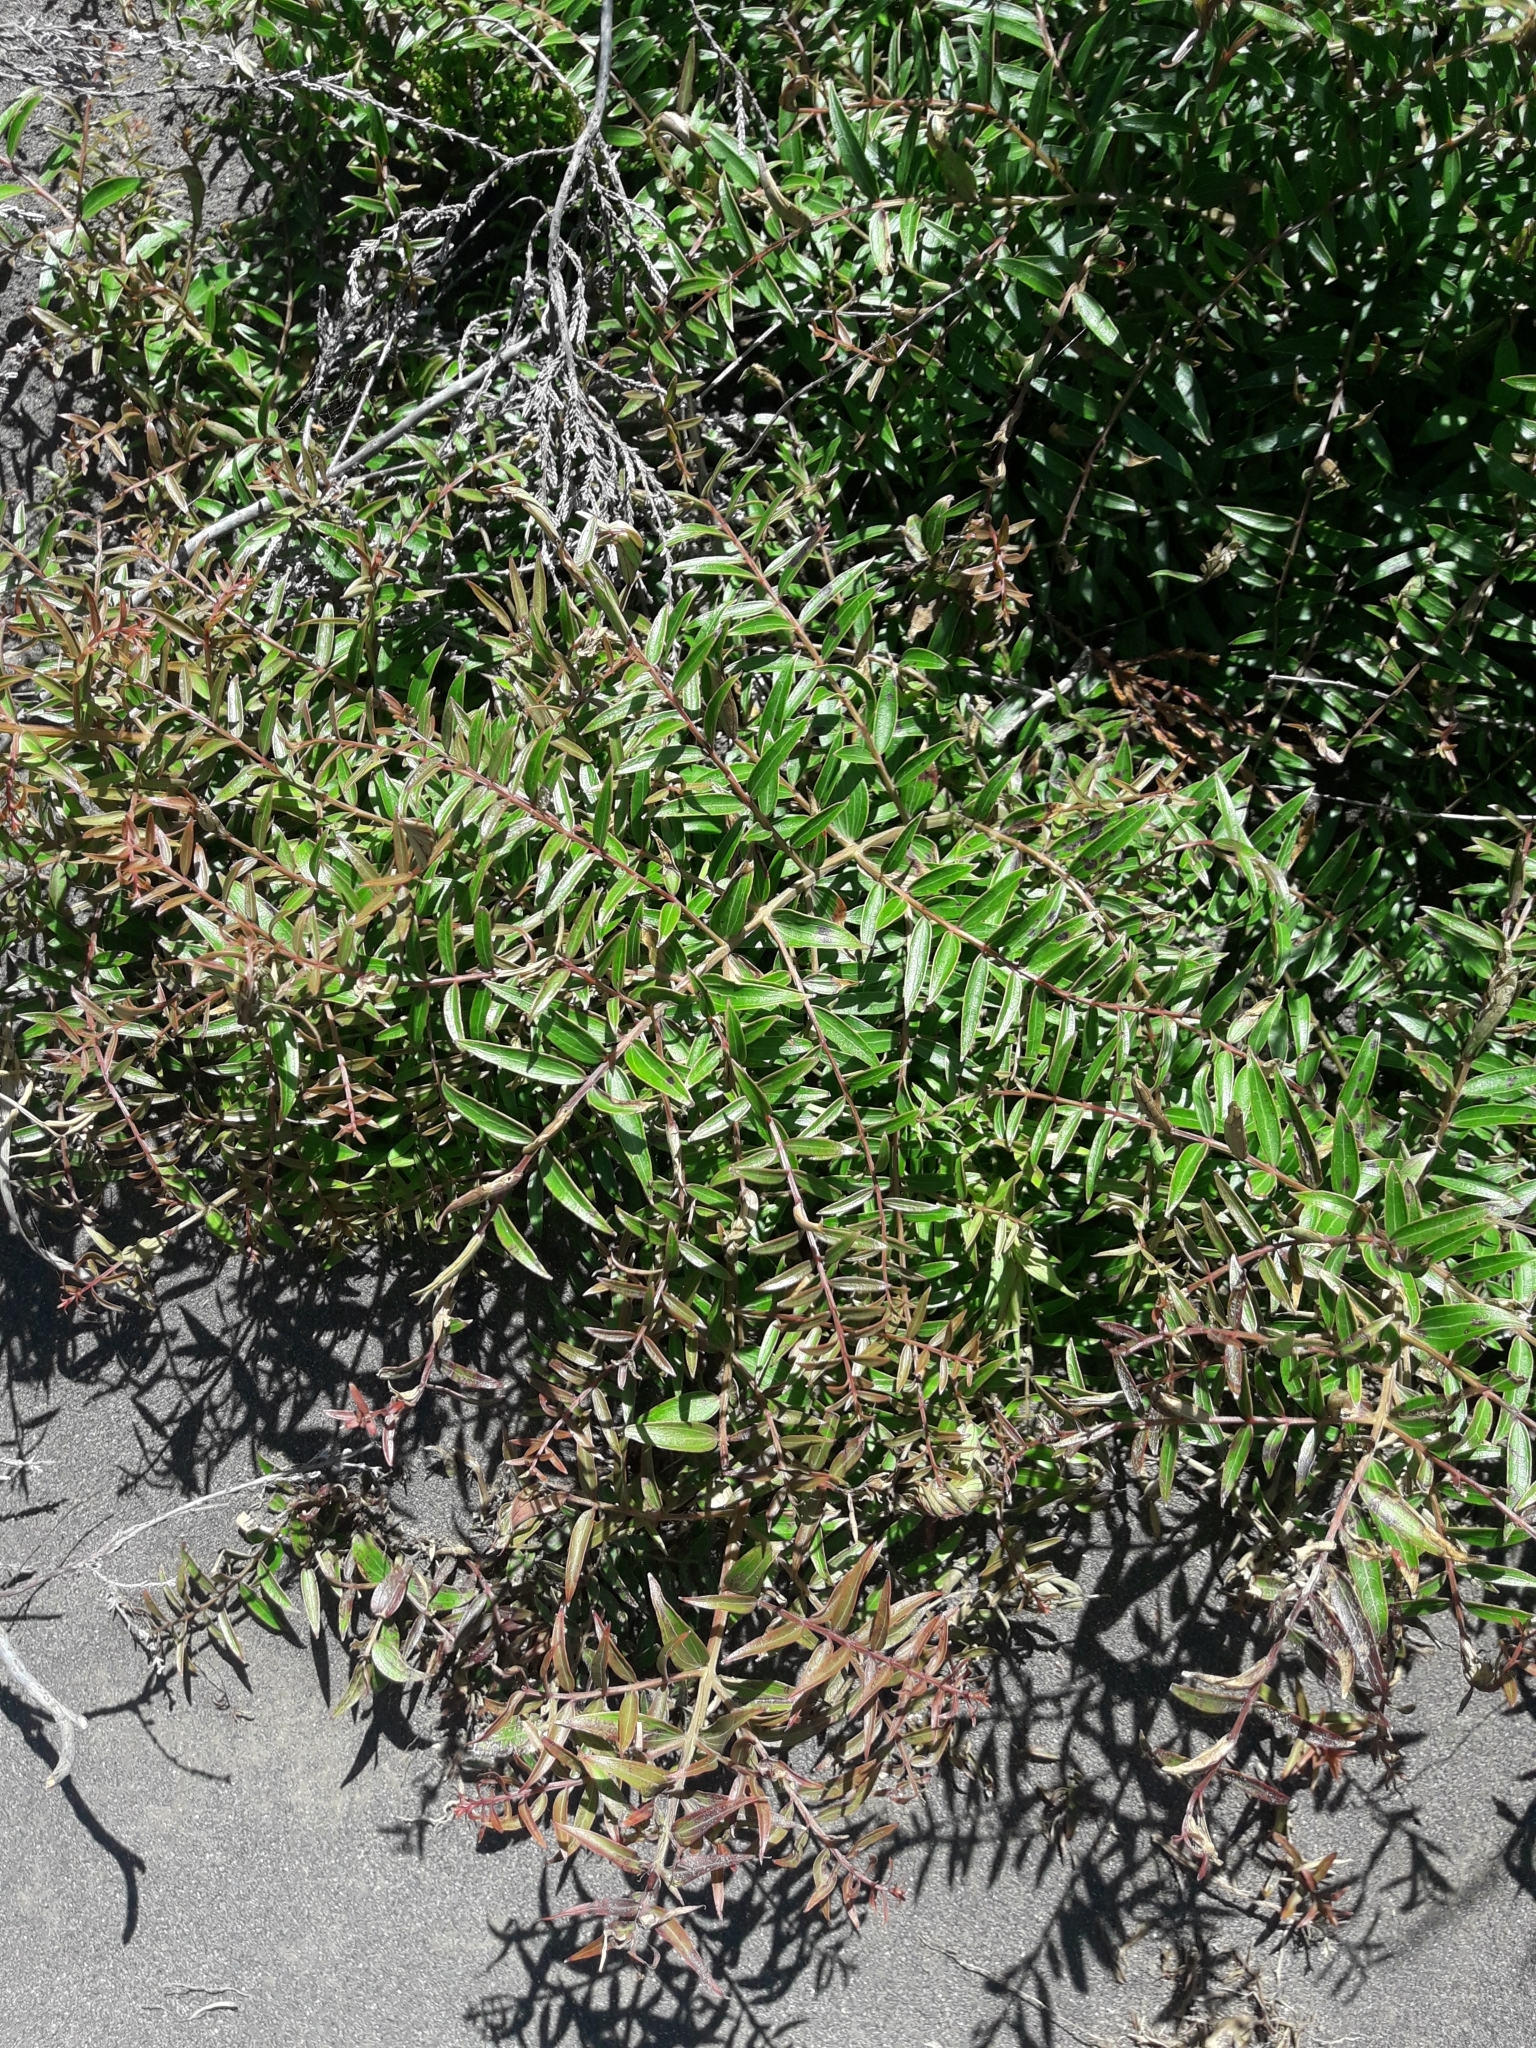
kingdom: Plantae
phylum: Tracheophyta
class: Magnoliopsida
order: Cucurbitales
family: Coriariaceae
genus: Coriaria
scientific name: Coriaria pteridoides
